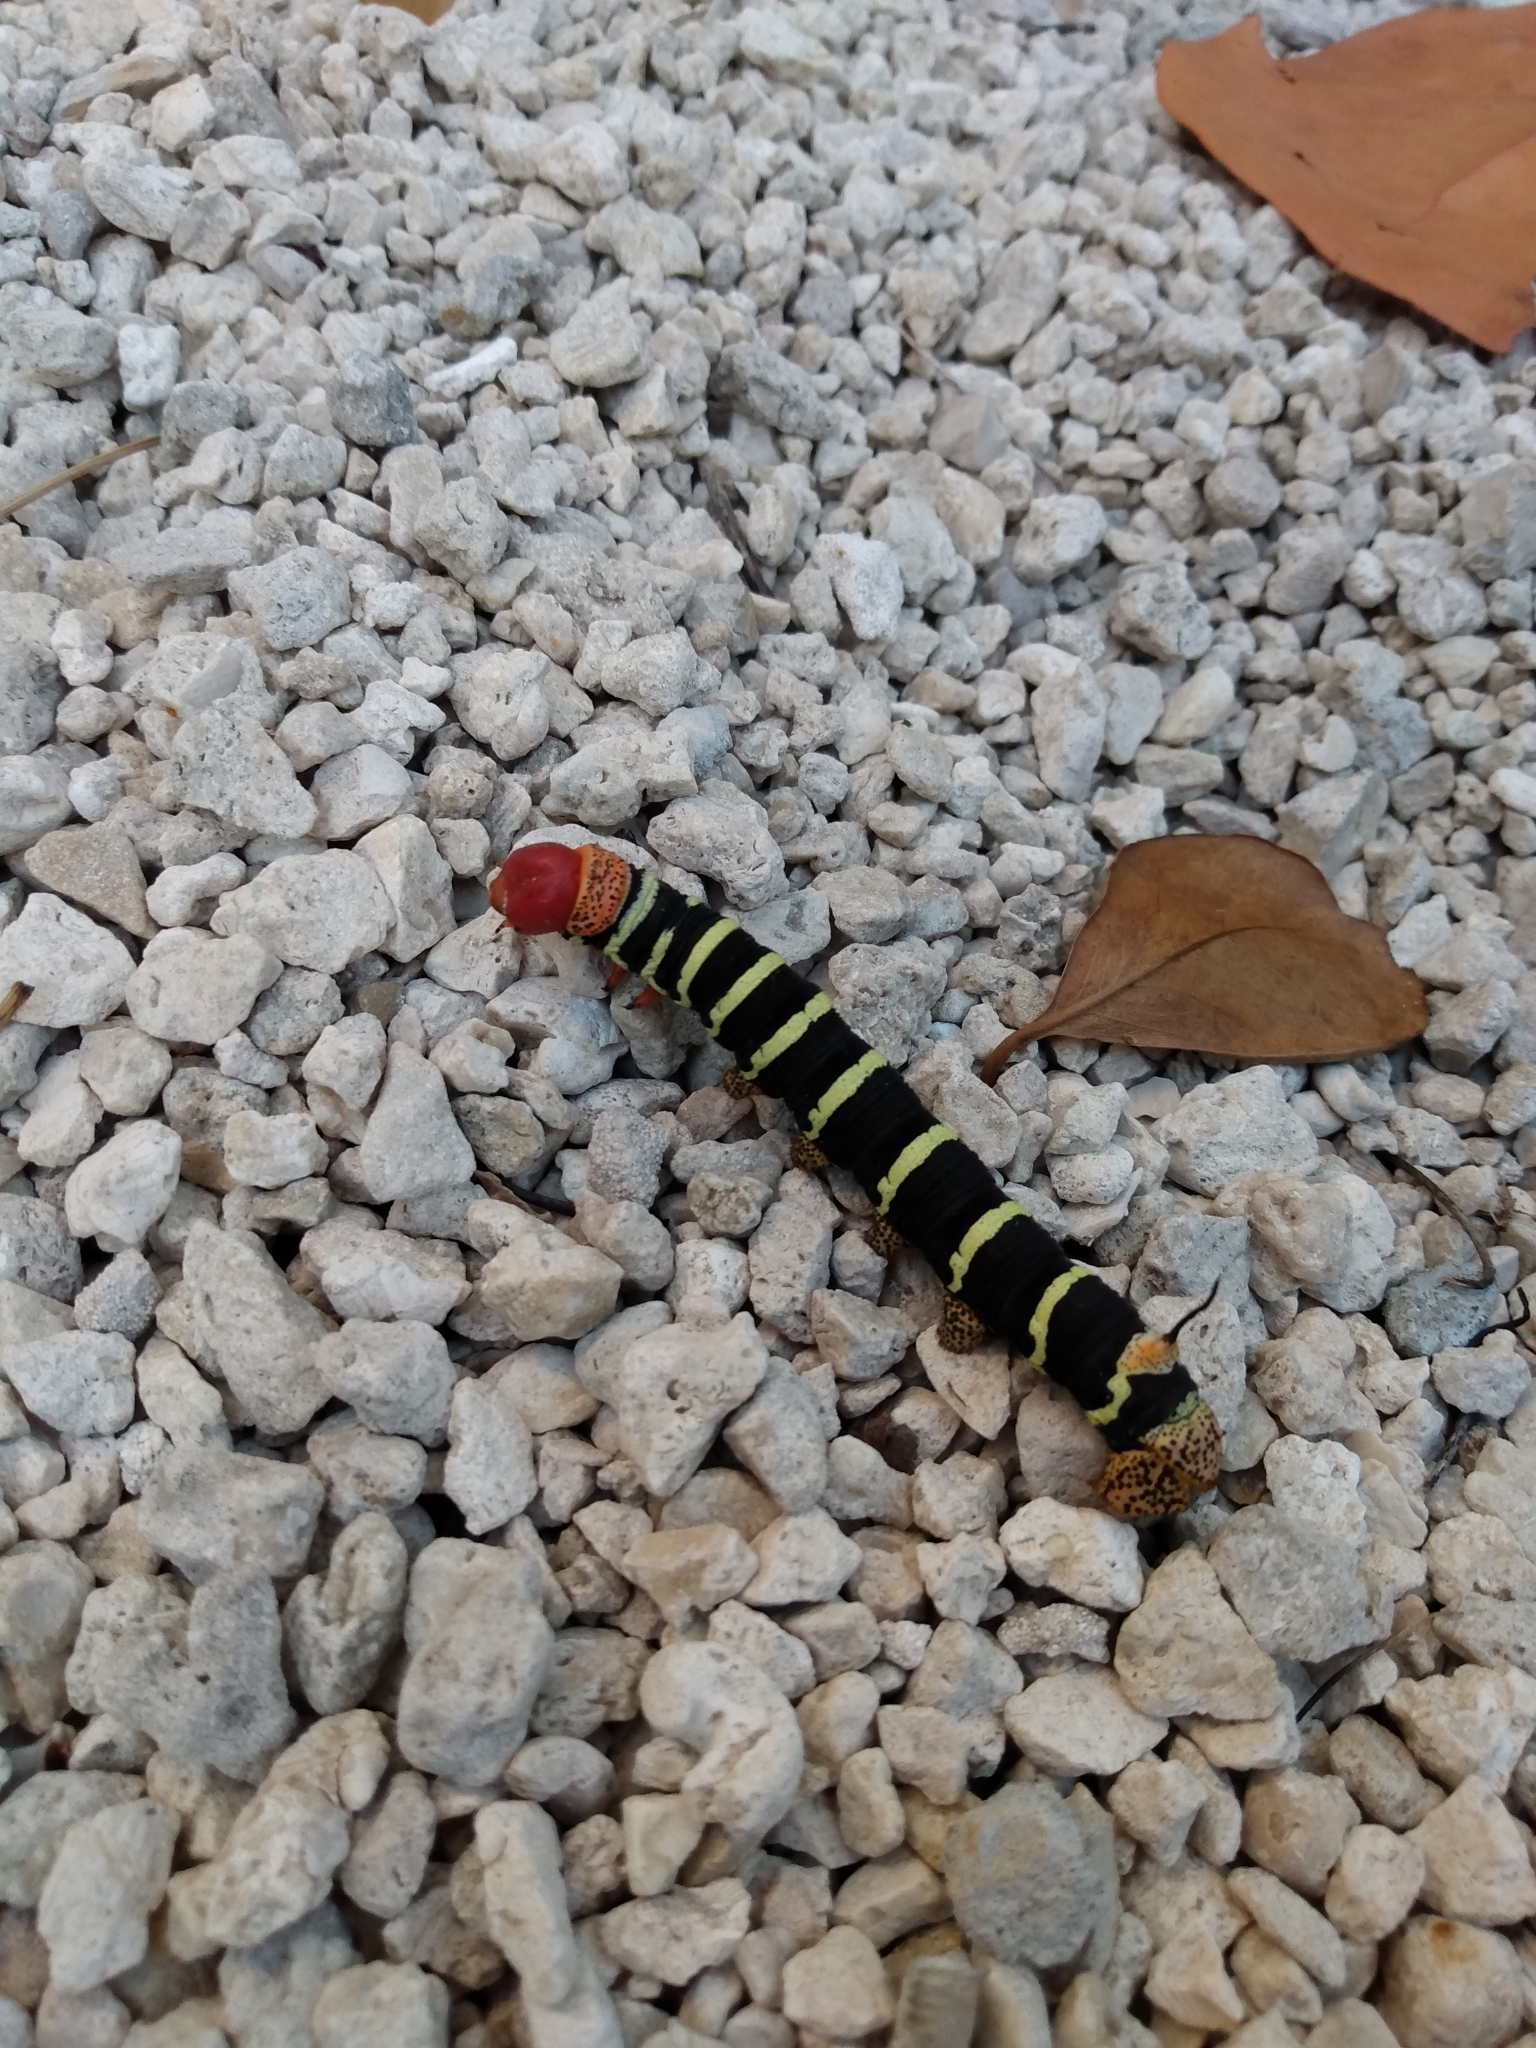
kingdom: Animalia
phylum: Arthropoda
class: Insecta
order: Lepidoptera
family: Sphingidae
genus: Pseudosphinx
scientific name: Pseudosphinx tetrio
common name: Tetrio sphinx
